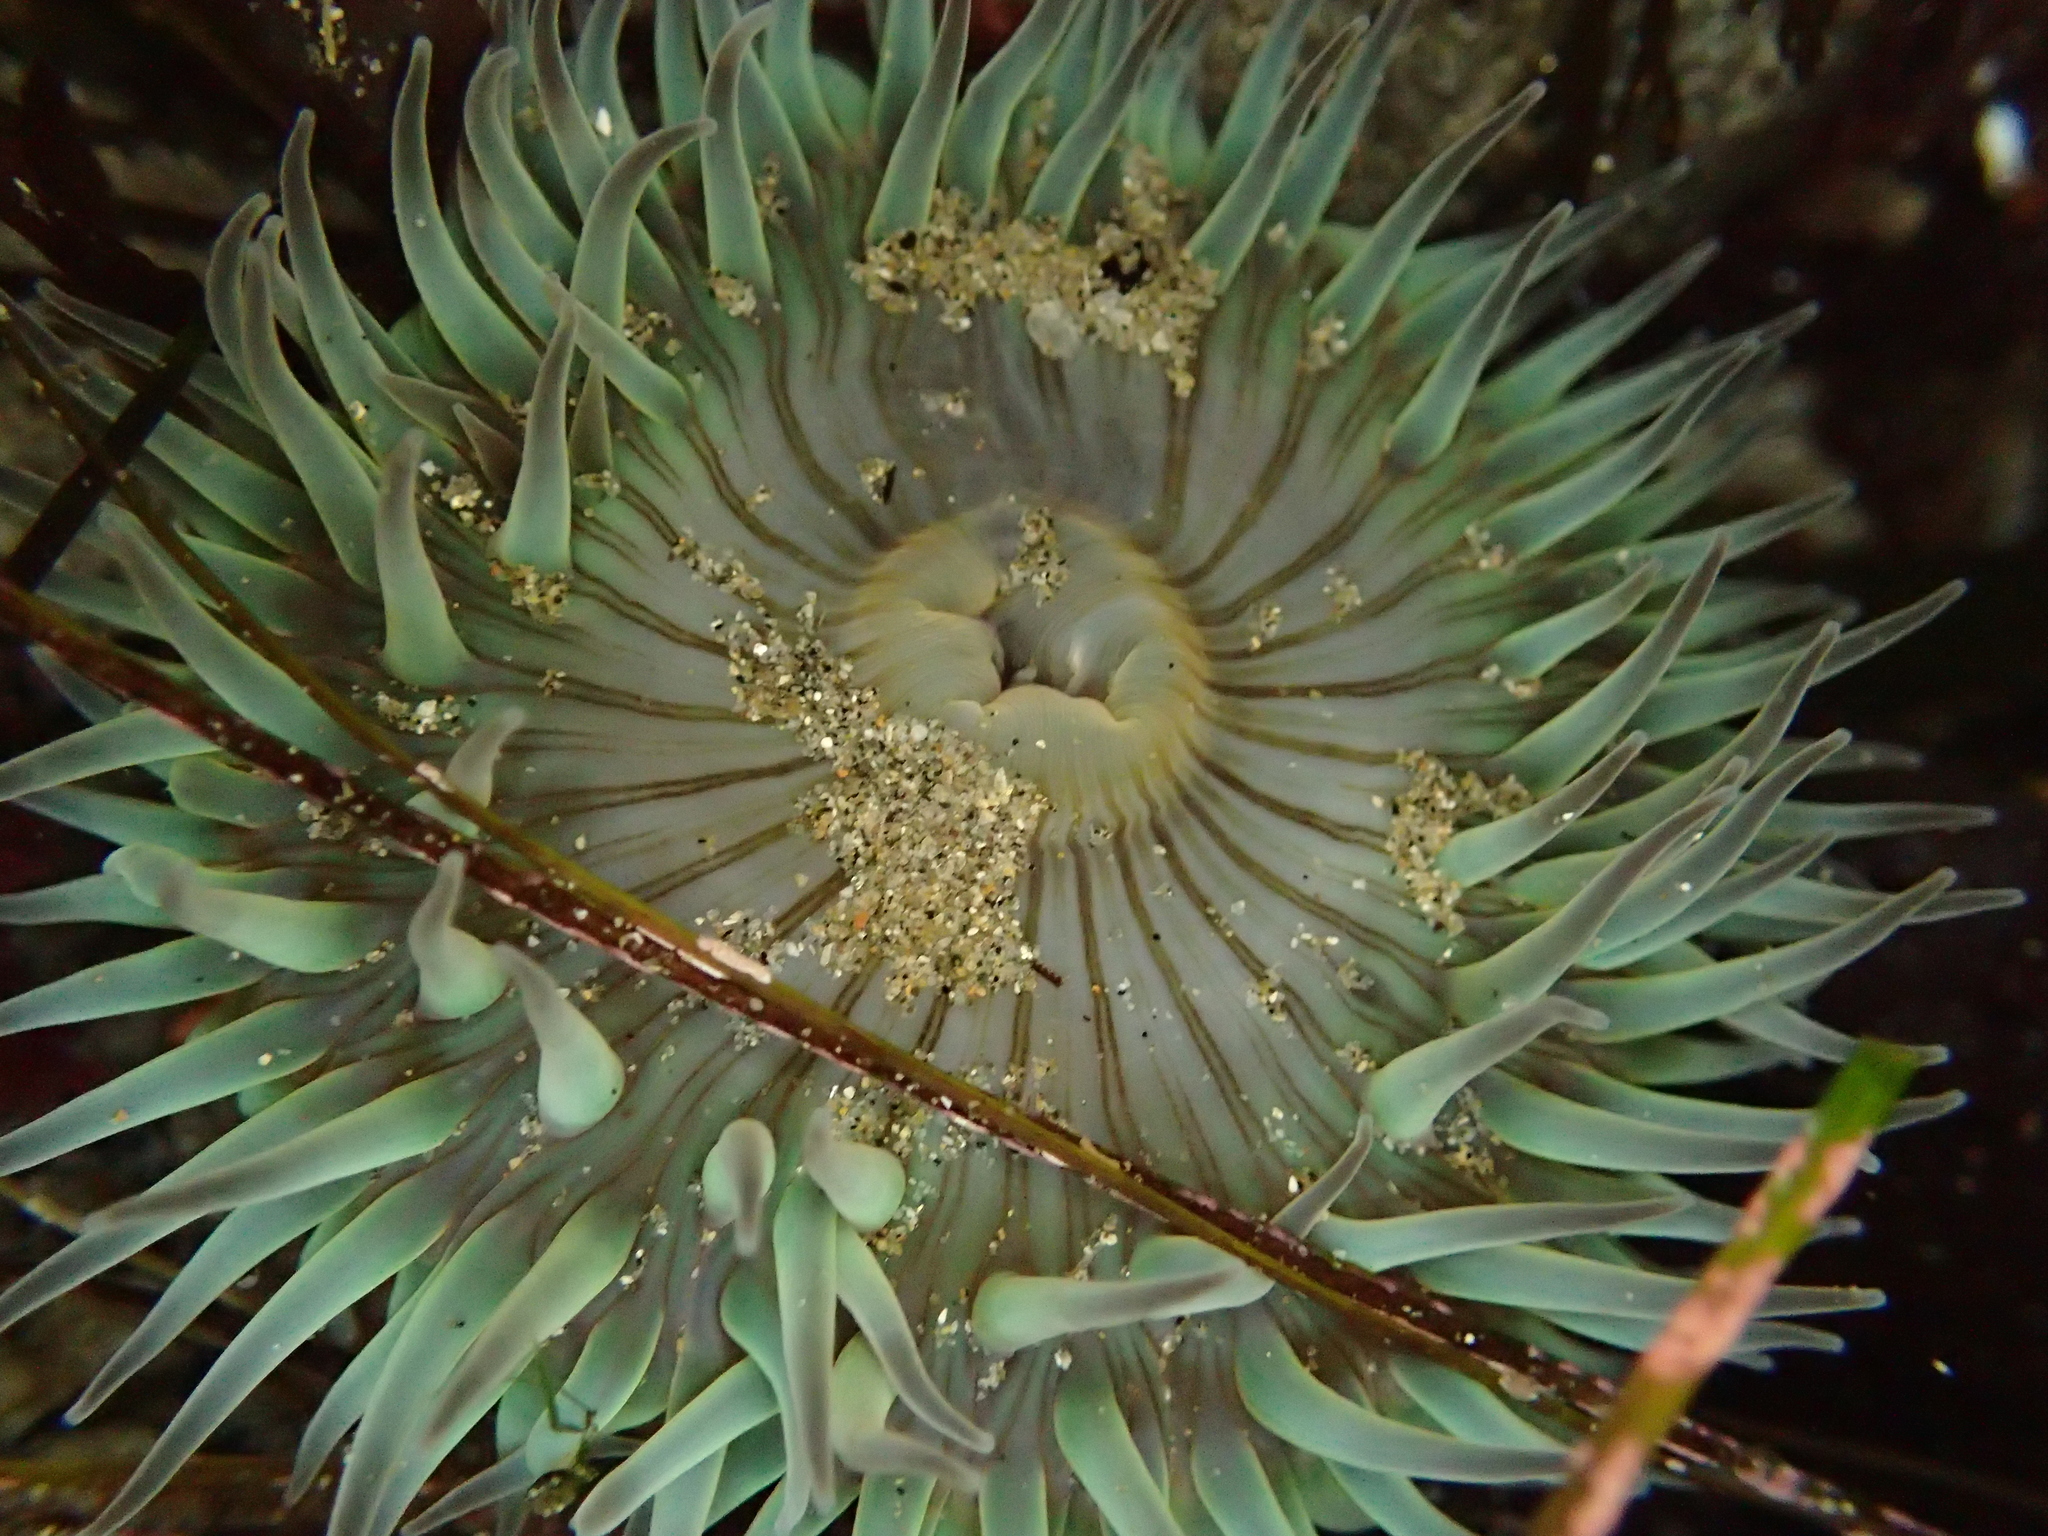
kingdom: Animalia
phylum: Cnidaria
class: Anthozoa
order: Actiniaria
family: Actiniidae
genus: Anthopleura
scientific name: Anthopleura sola
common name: Sun anemone
